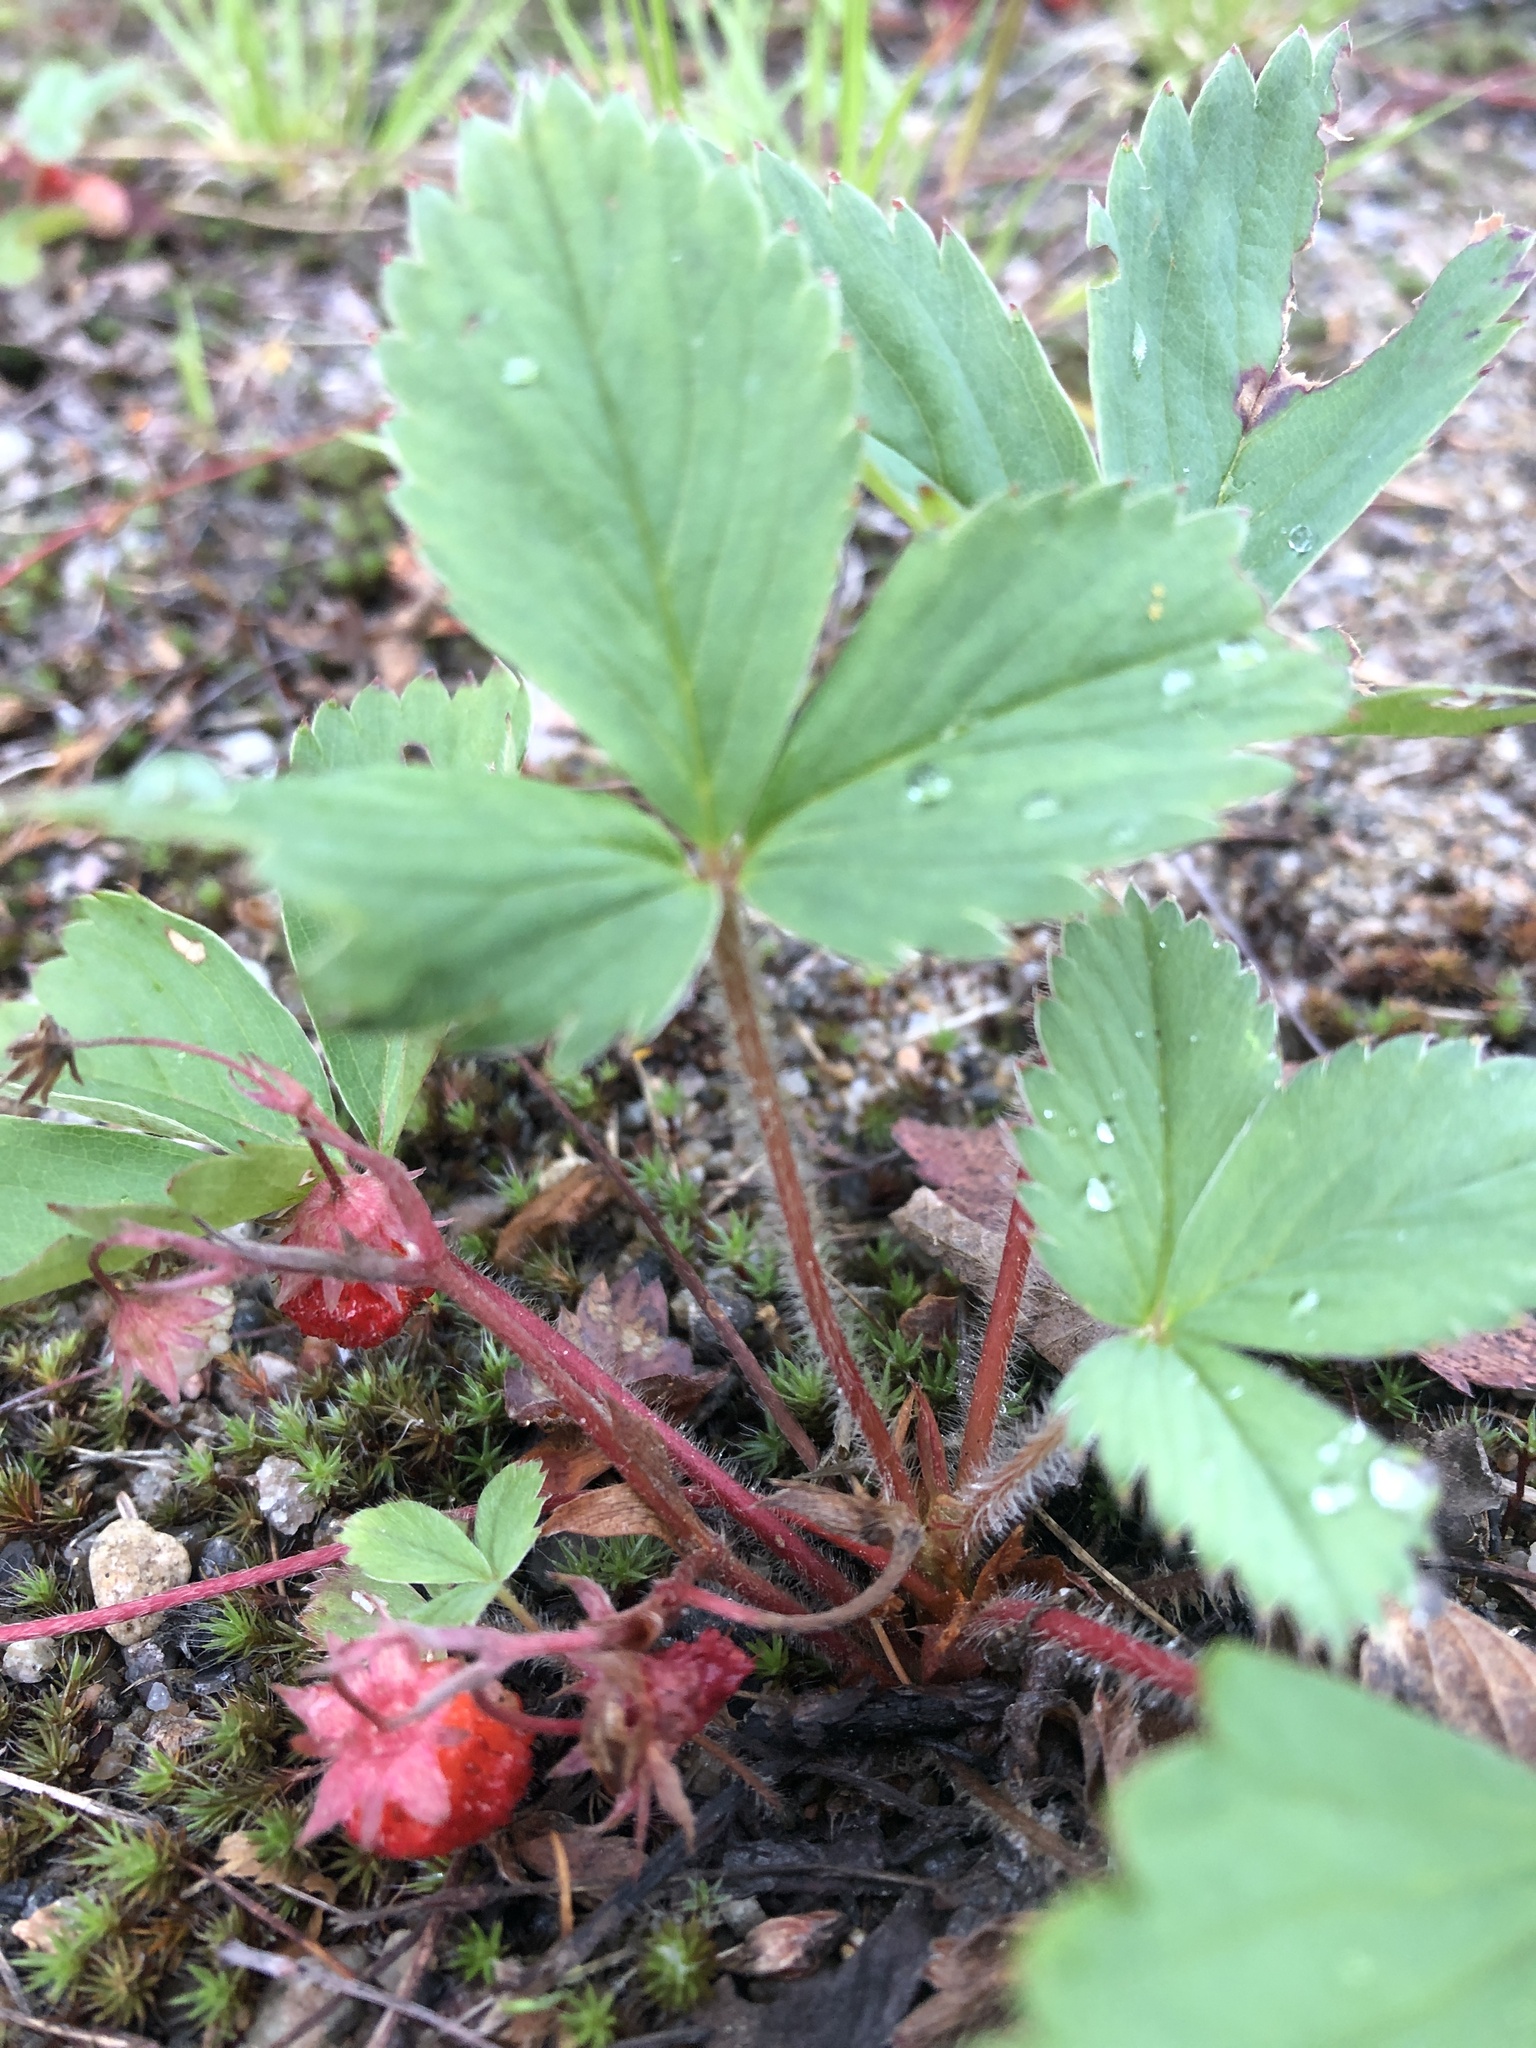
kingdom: Plantae
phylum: Tracheophyta
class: Magnoliopsida
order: Rosales
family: Rosaceae
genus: Fragaria
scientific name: Fragaria virginiana
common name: Thickleaved wild strawberry
